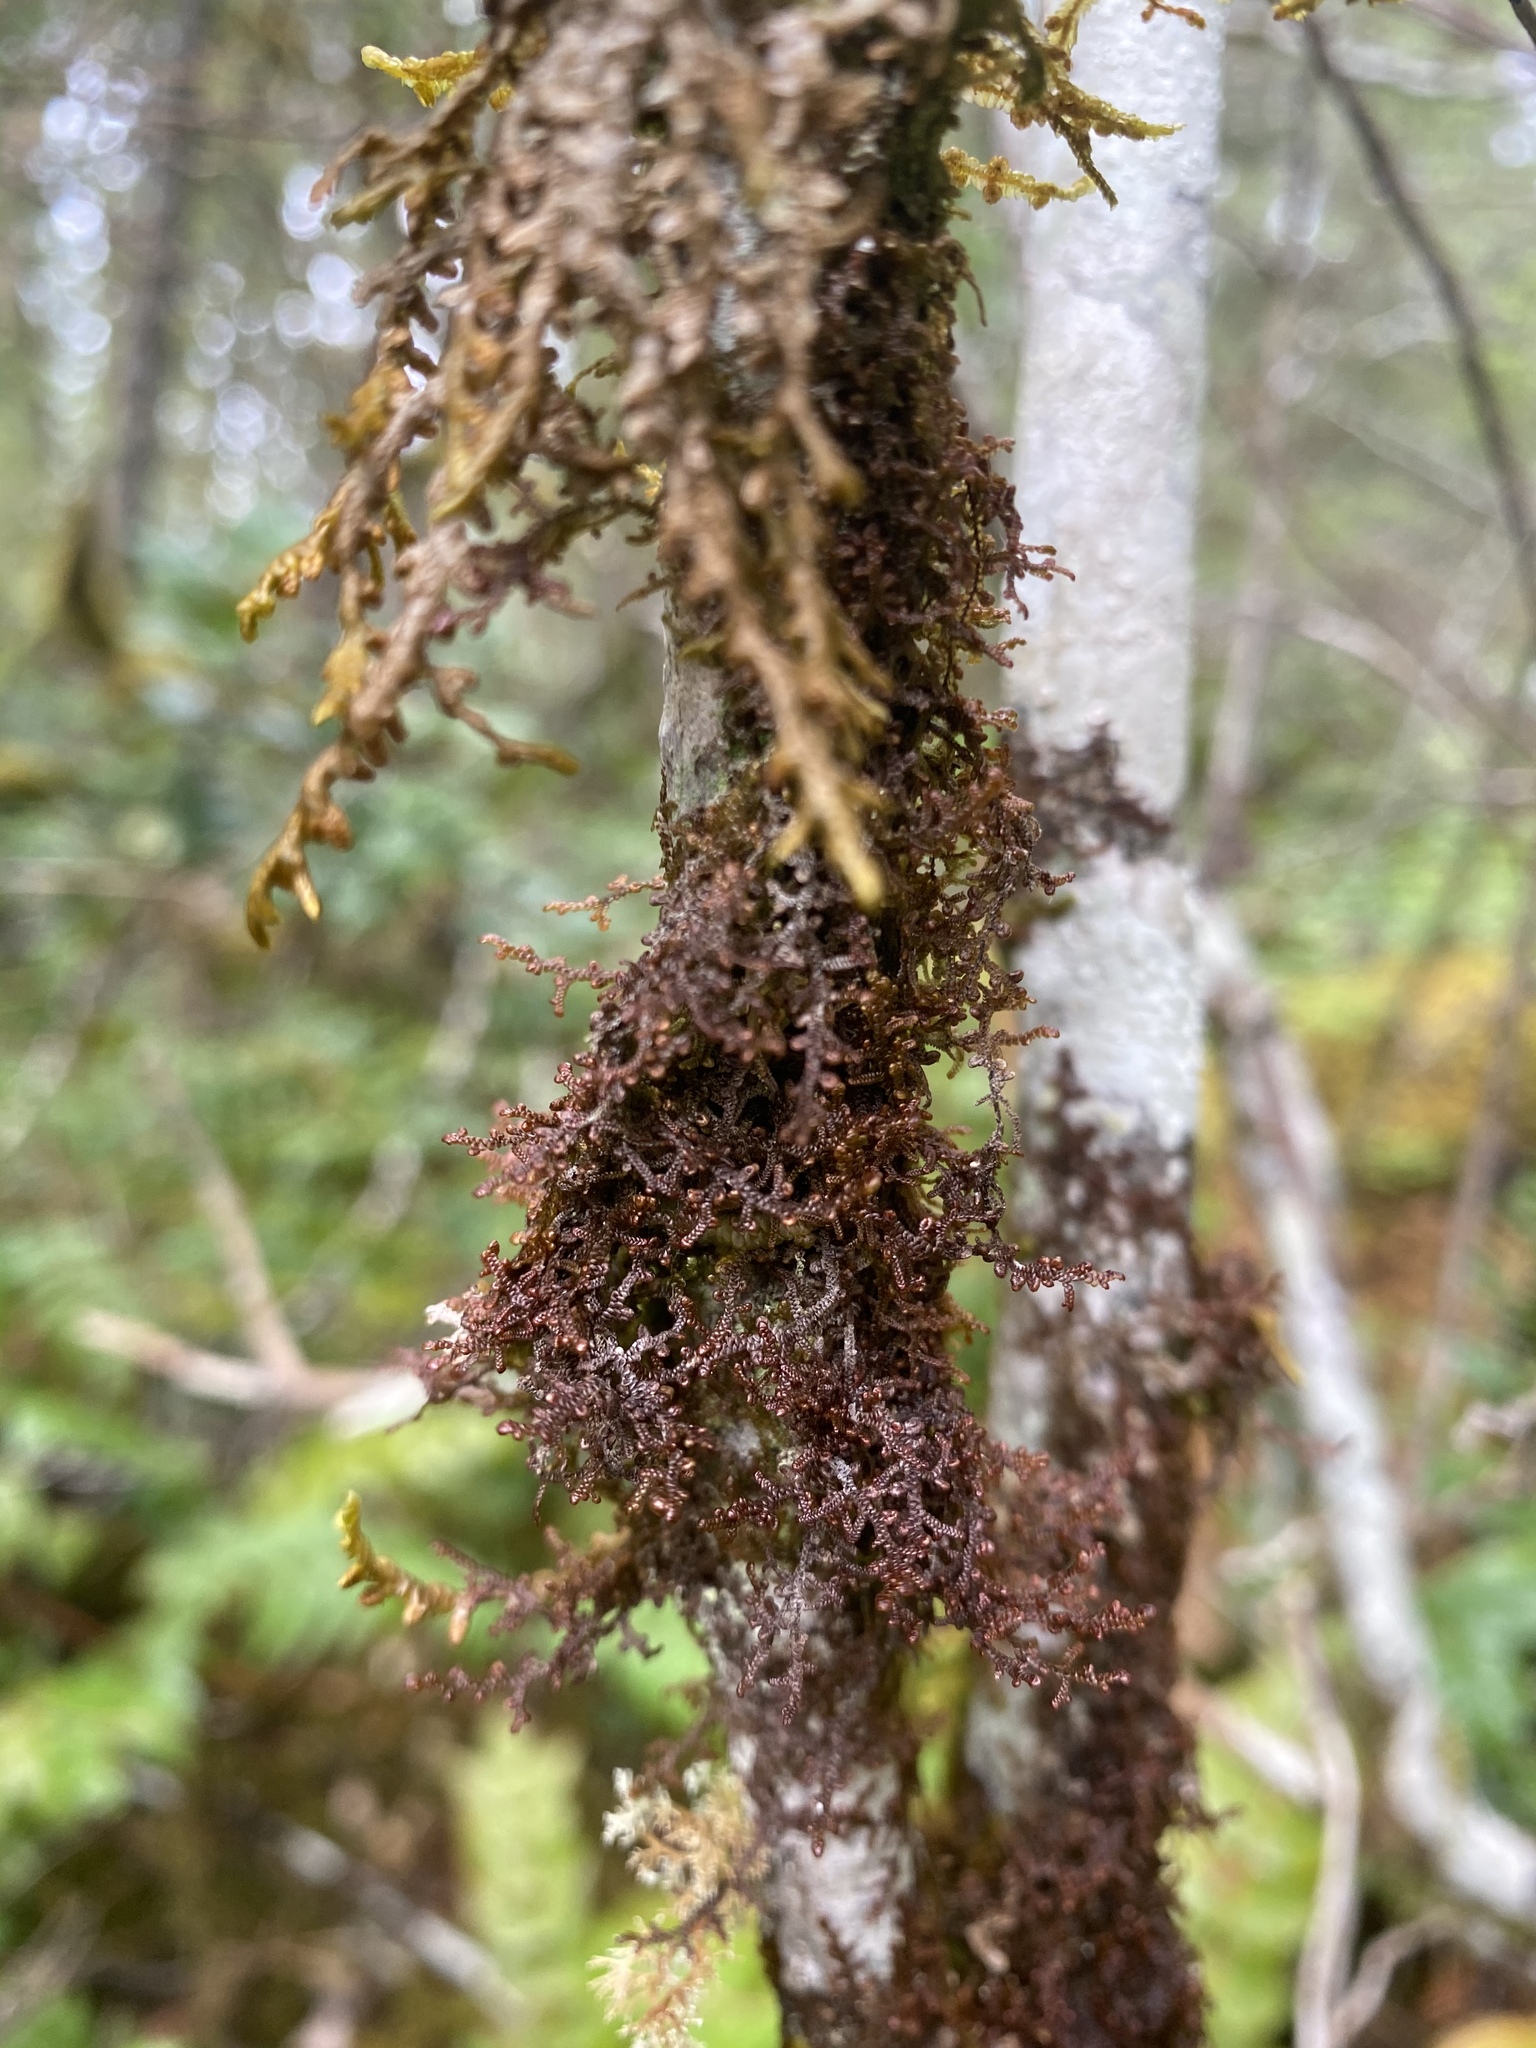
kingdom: Plantae
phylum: Marchantiophyta
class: Jungermanniopsida
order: Porellales
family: Frullaniaceae
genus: Frullania
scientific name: Frullania nisquallensis
